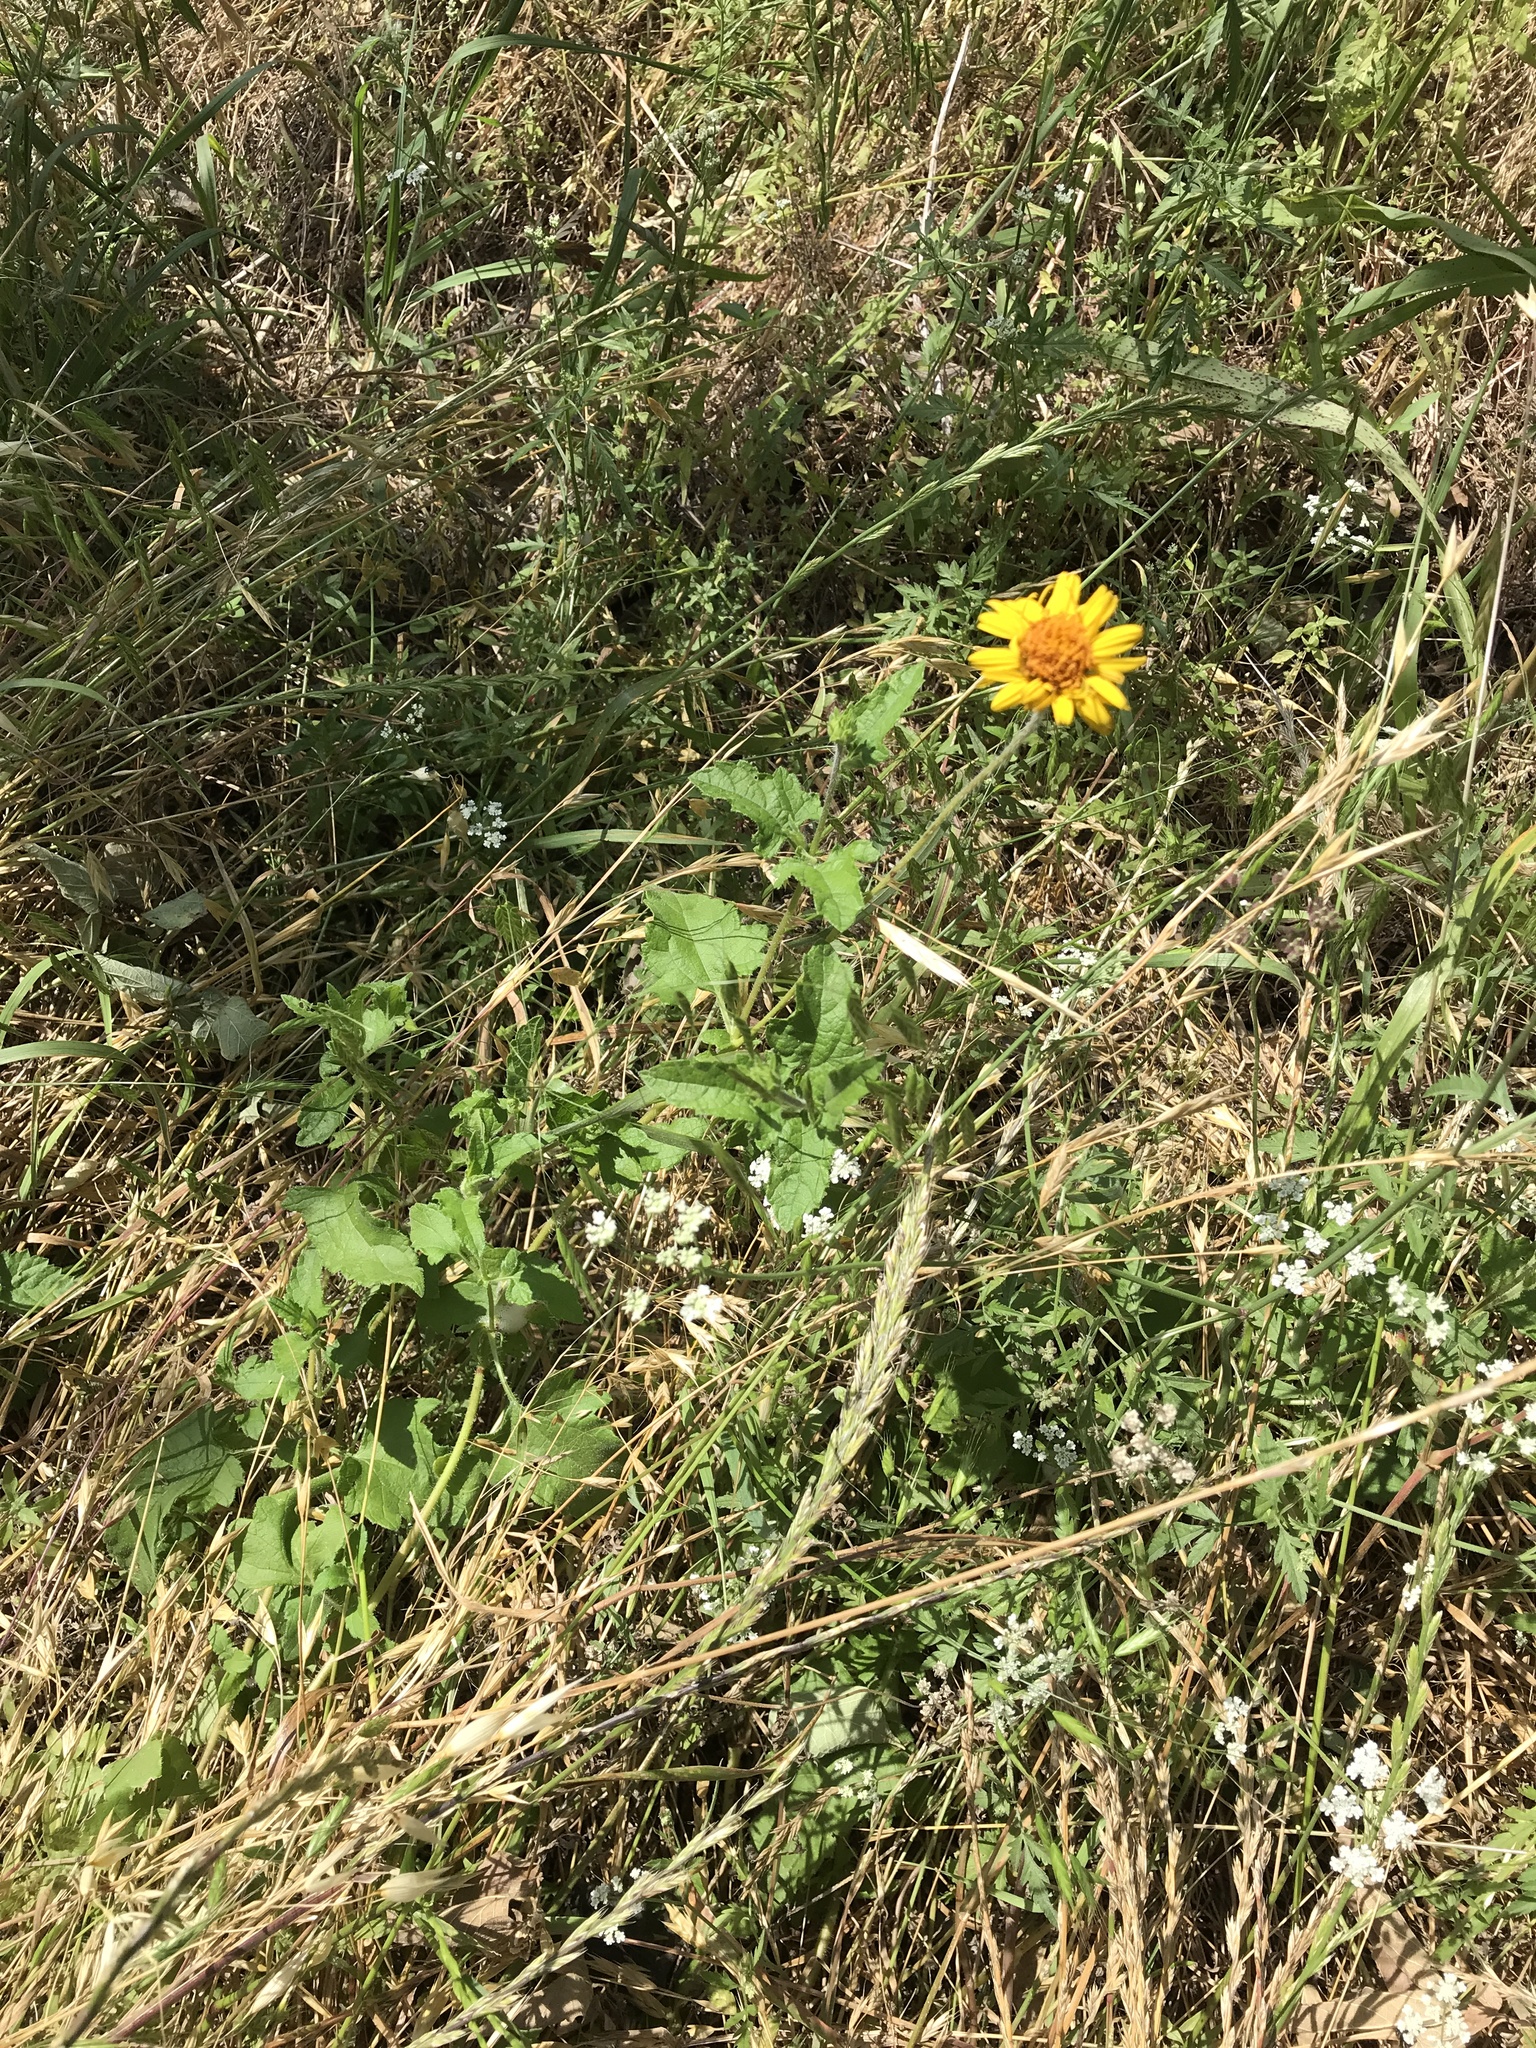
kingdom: Plantae
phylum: Tracheophyta
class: Magnoliopsida
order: Asterales
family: Asteraceae
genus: Simsia
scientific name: Simsia calva
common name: Awnless bush-sunflower
